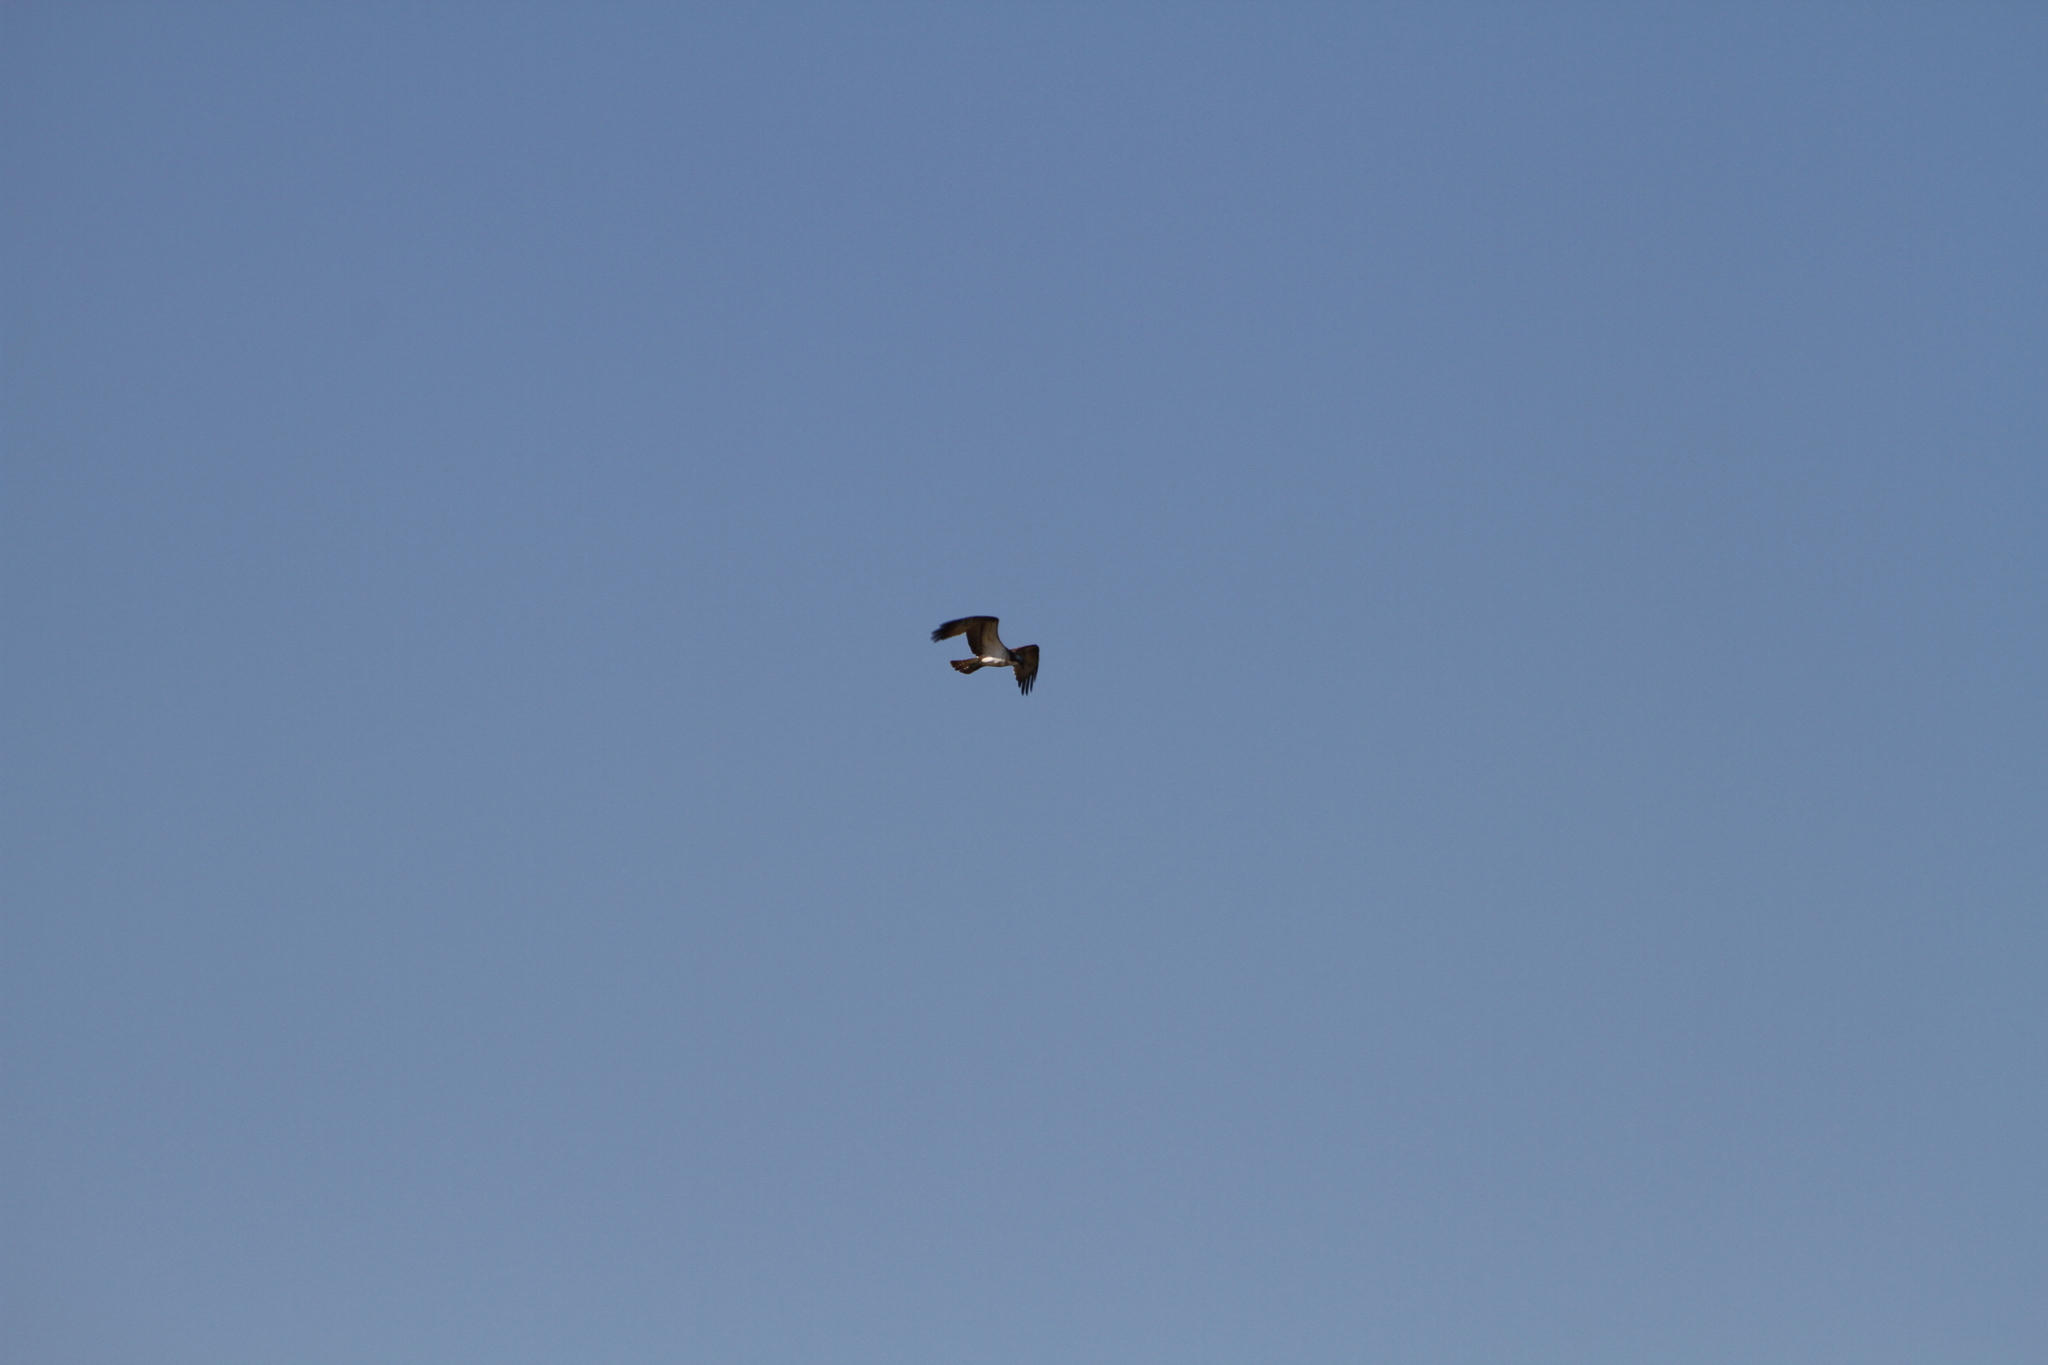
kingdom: Animalia
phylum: Chordata
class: Aves
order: Accipitriformes
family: Pandionidae
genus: Pandion
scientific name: Pandion haliaetus
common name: Osprey
